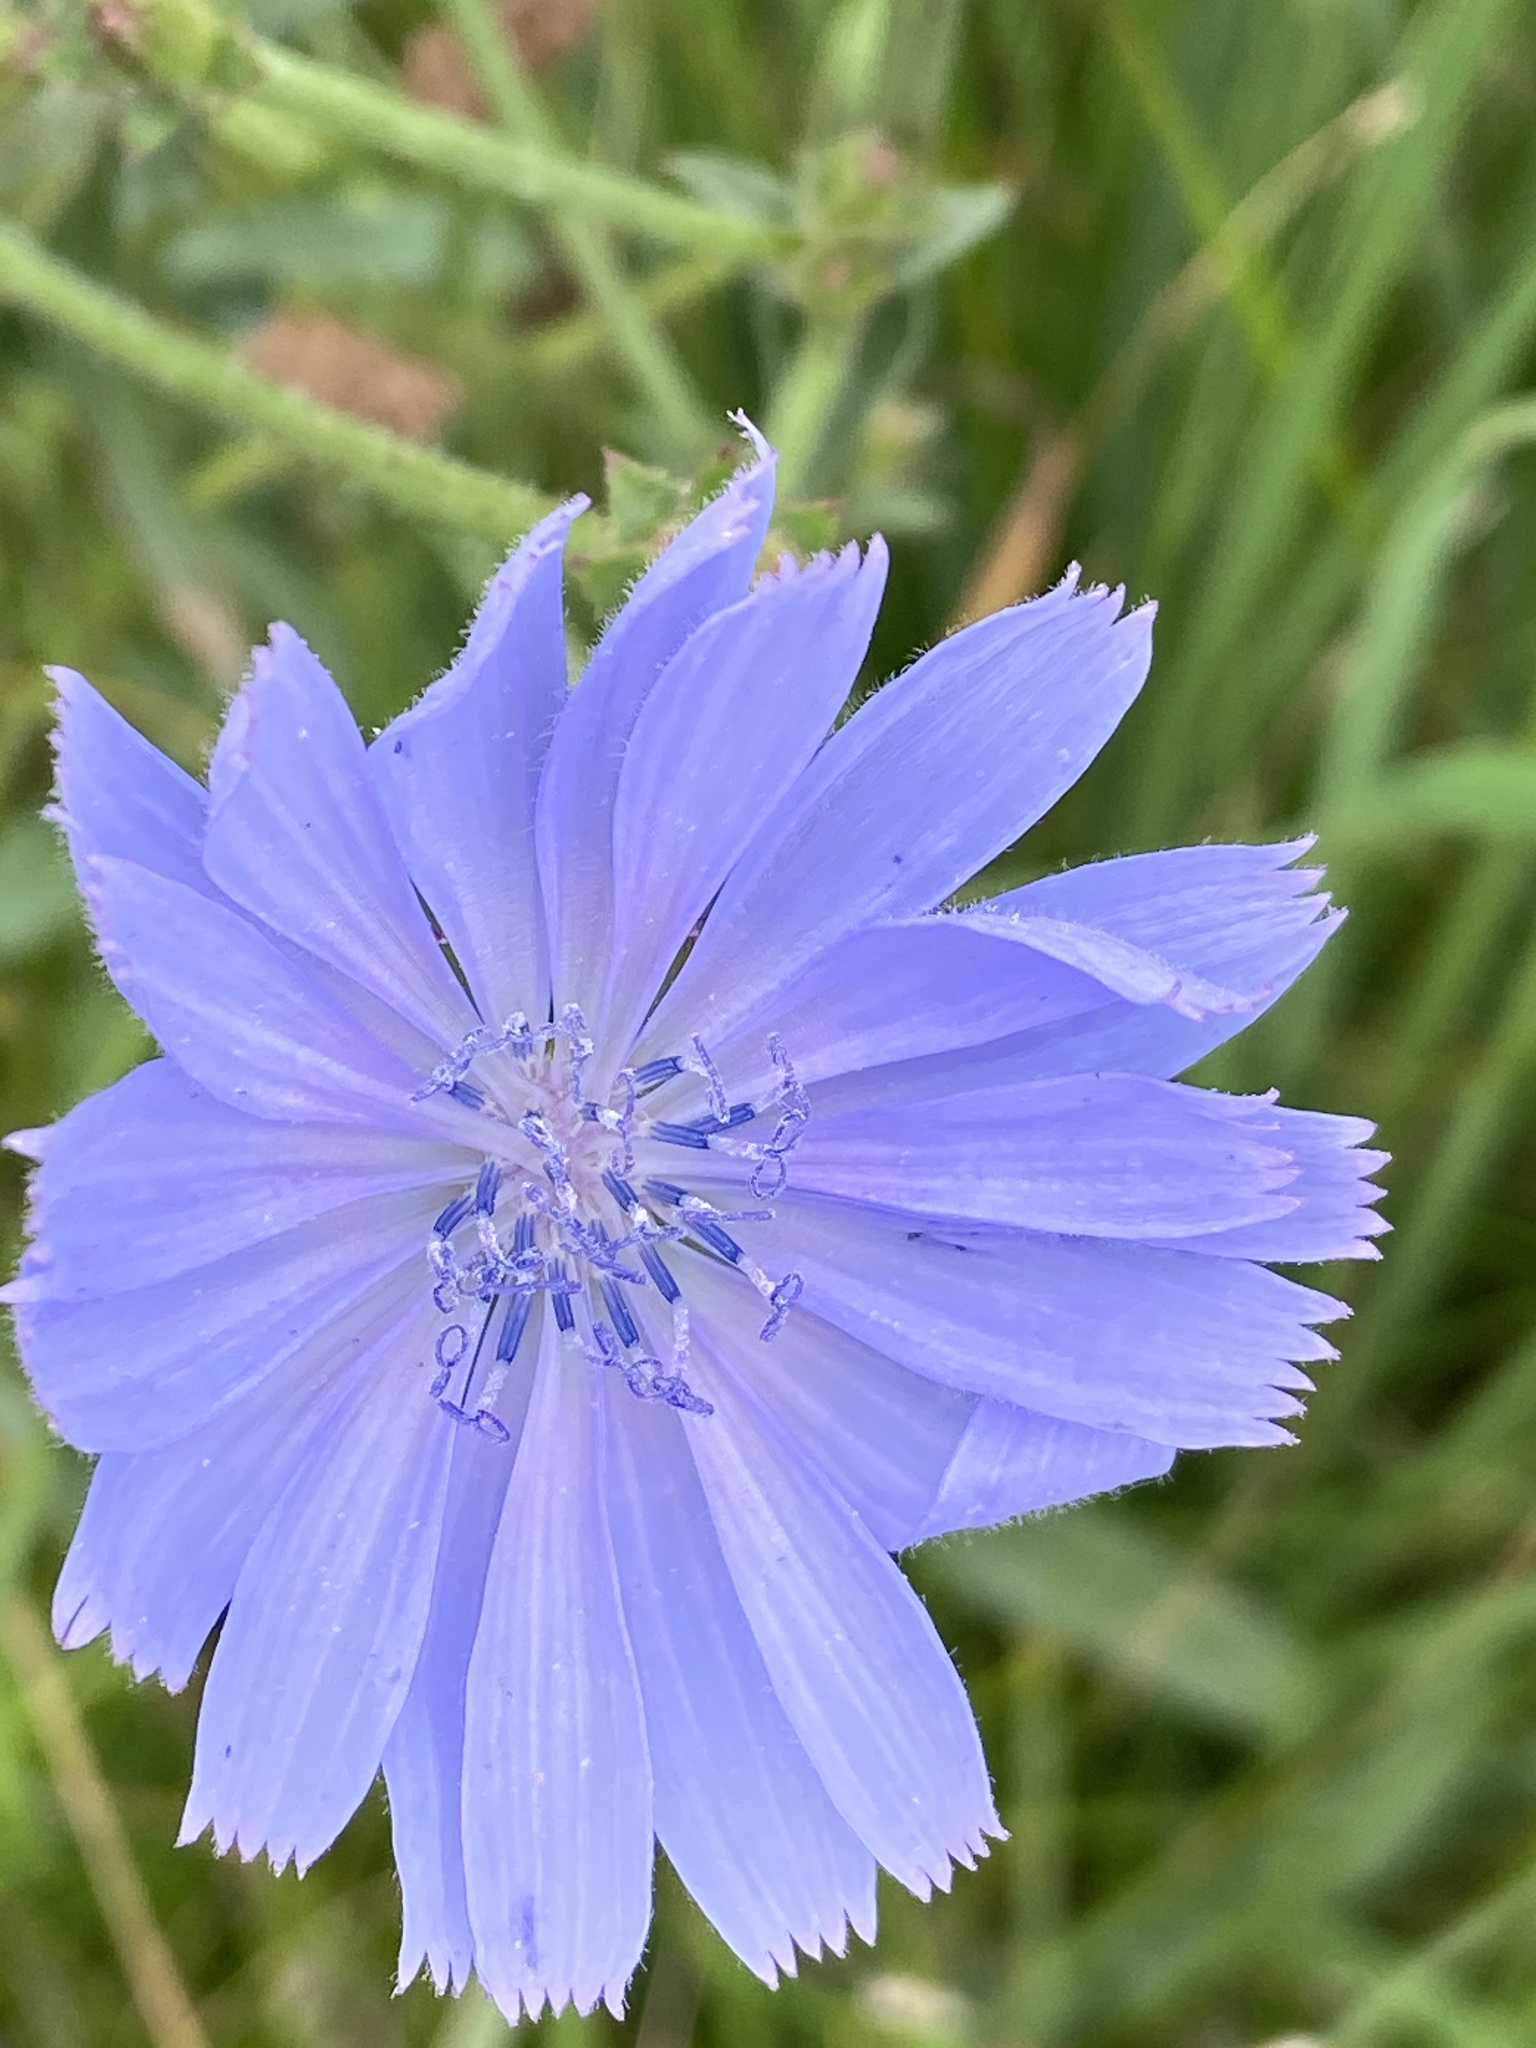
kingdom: Plantae
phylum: Tracheophyta
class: Magnoliopsida
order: Asterales
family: Asteraceae
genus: Cichorium
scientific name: Cichorium intybus
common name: Chicory
